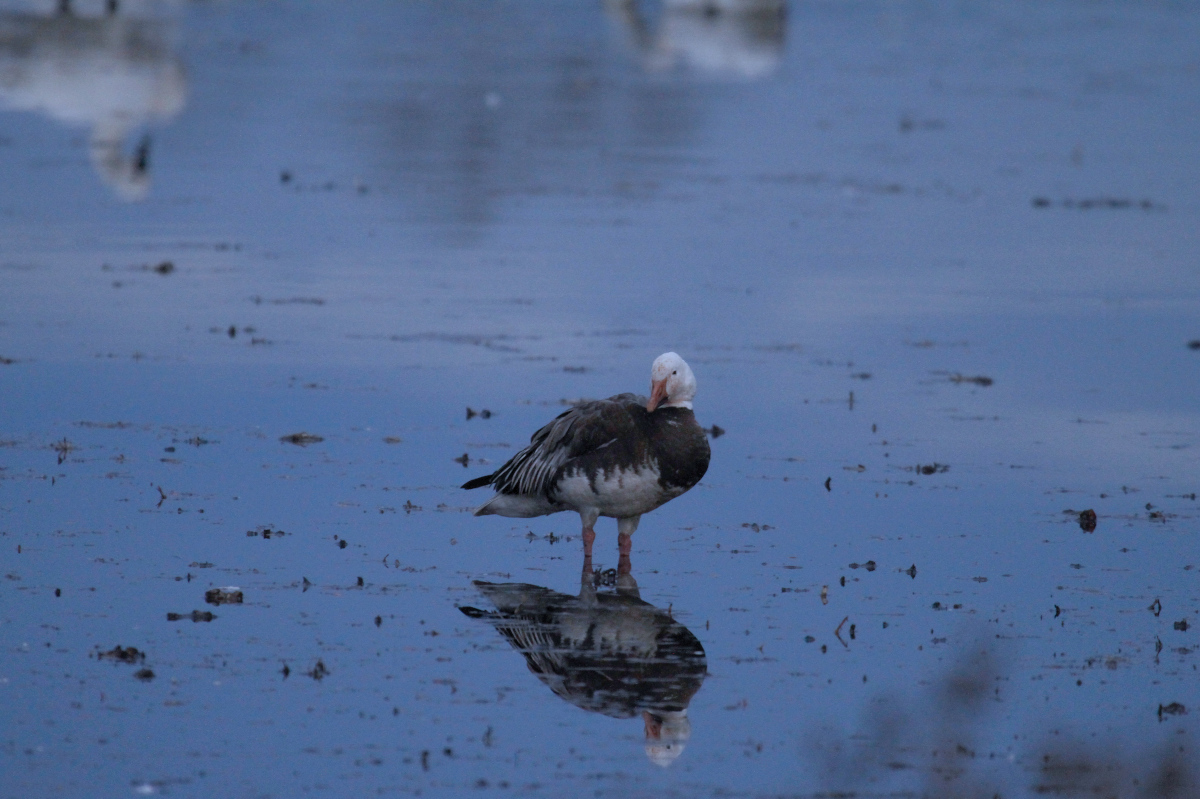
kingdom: Animalia
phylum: Chordata
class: Aves
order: Anseriformes
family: Anatidae
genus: Anser
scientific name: Anser caerulescens
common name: Snow goose
